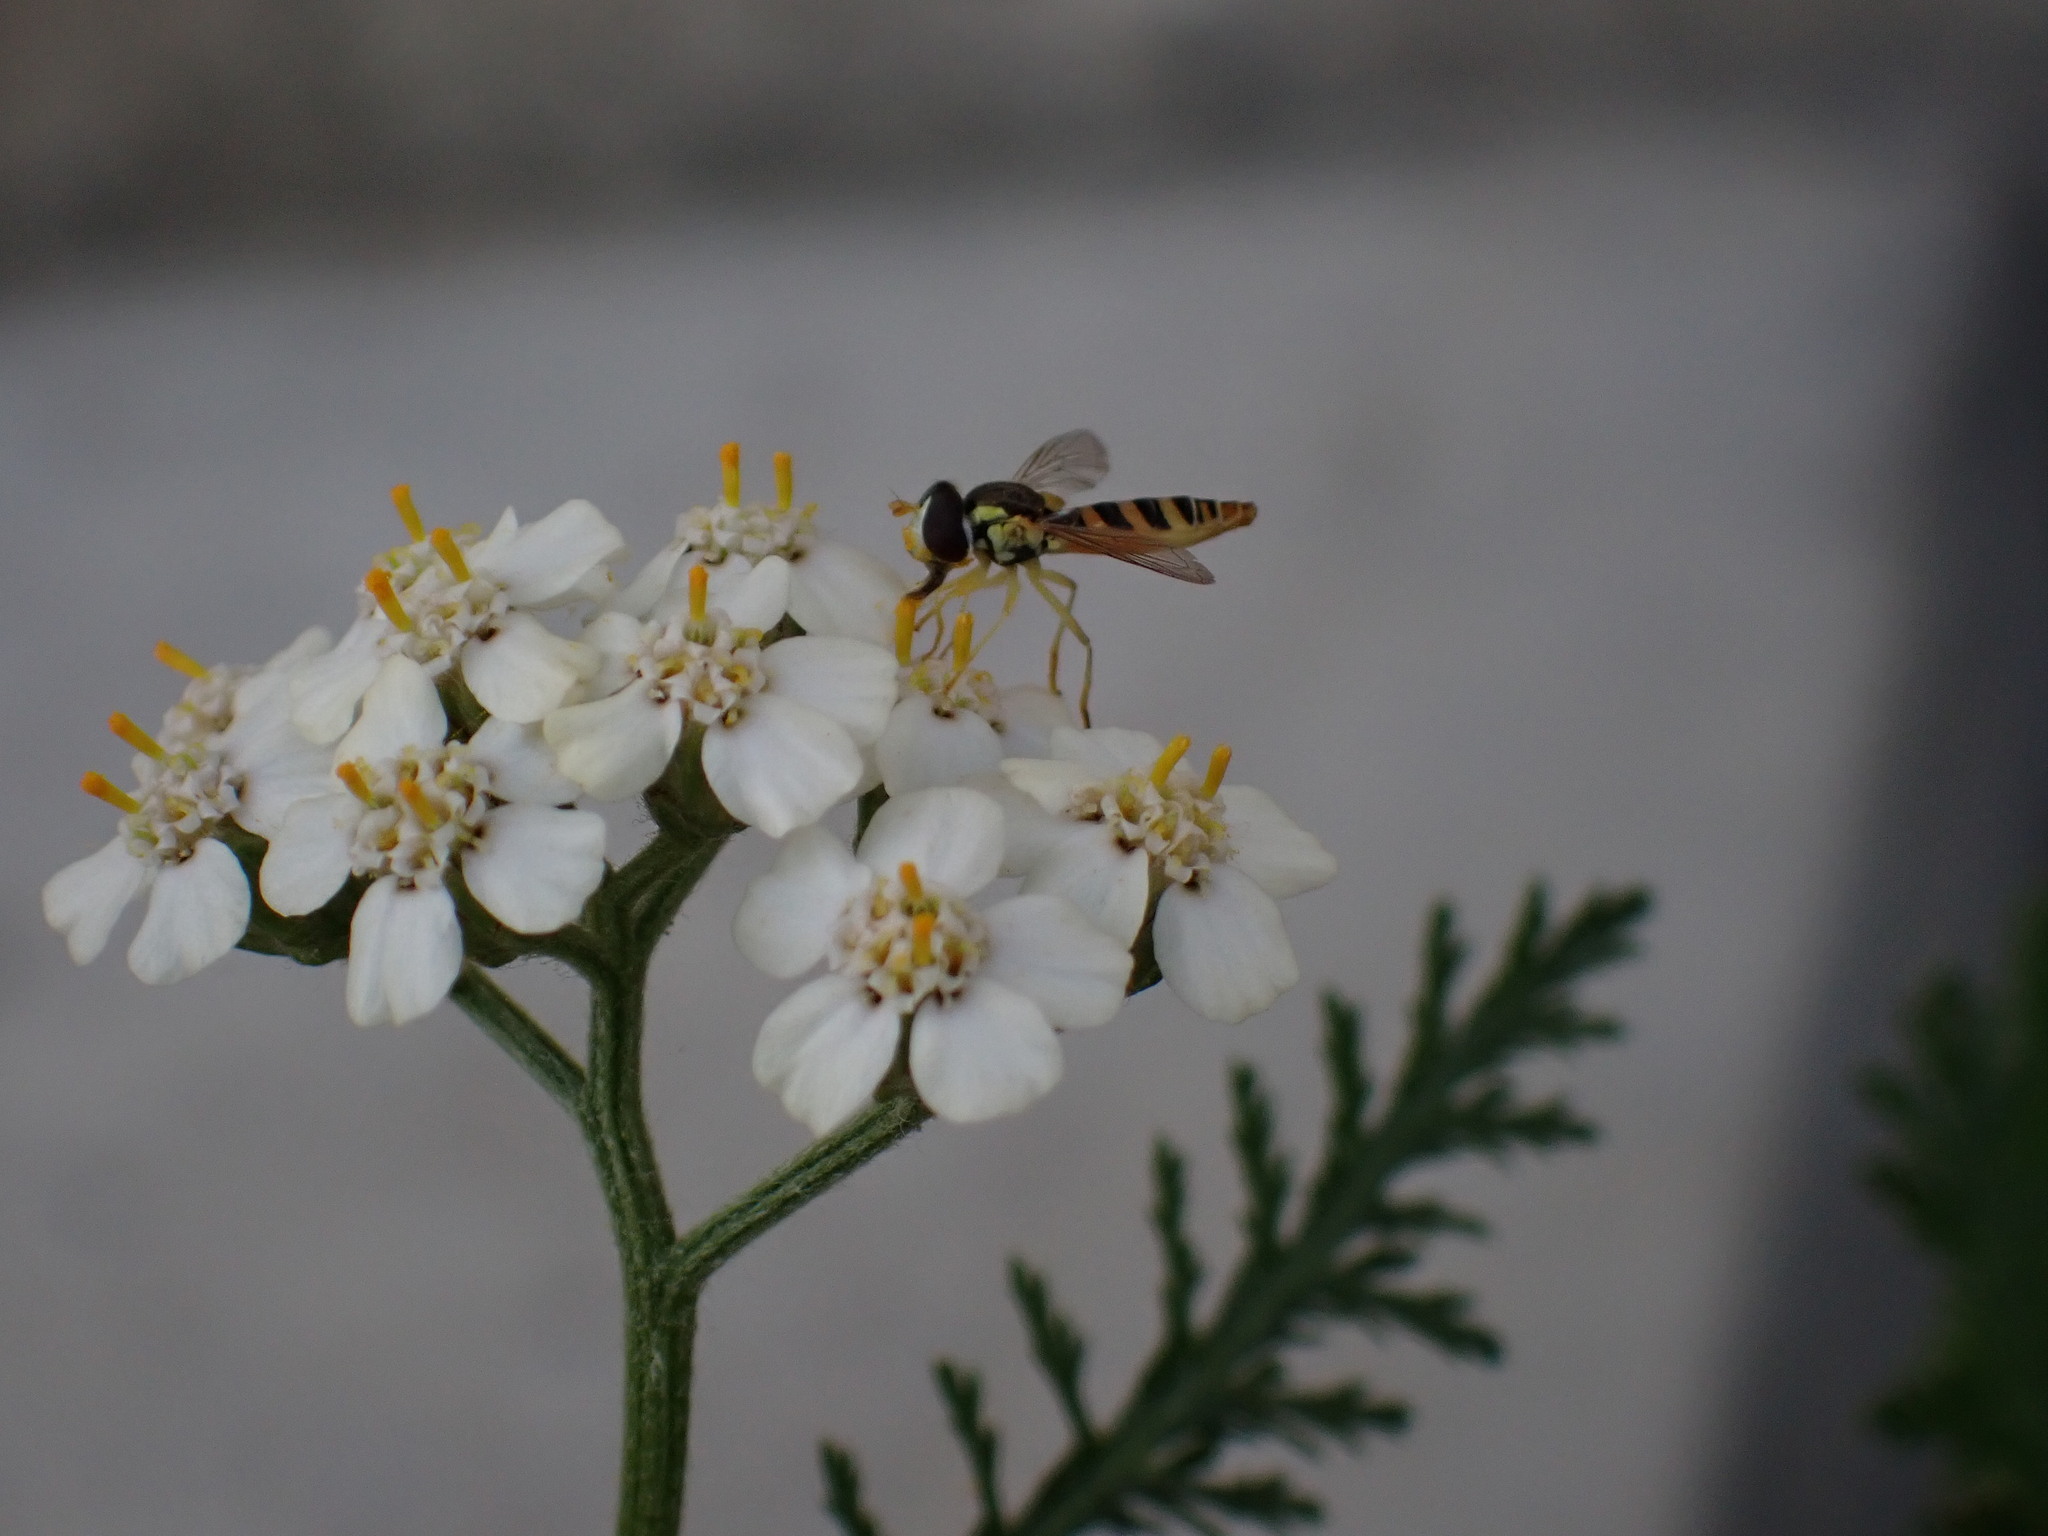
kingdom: Animalia
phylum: Arthropoda
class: Insecta
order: Diptera
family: Syrphidae
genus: Sphaerophoria
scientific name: Sphaerophoria contigua
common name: Tufted globetail
